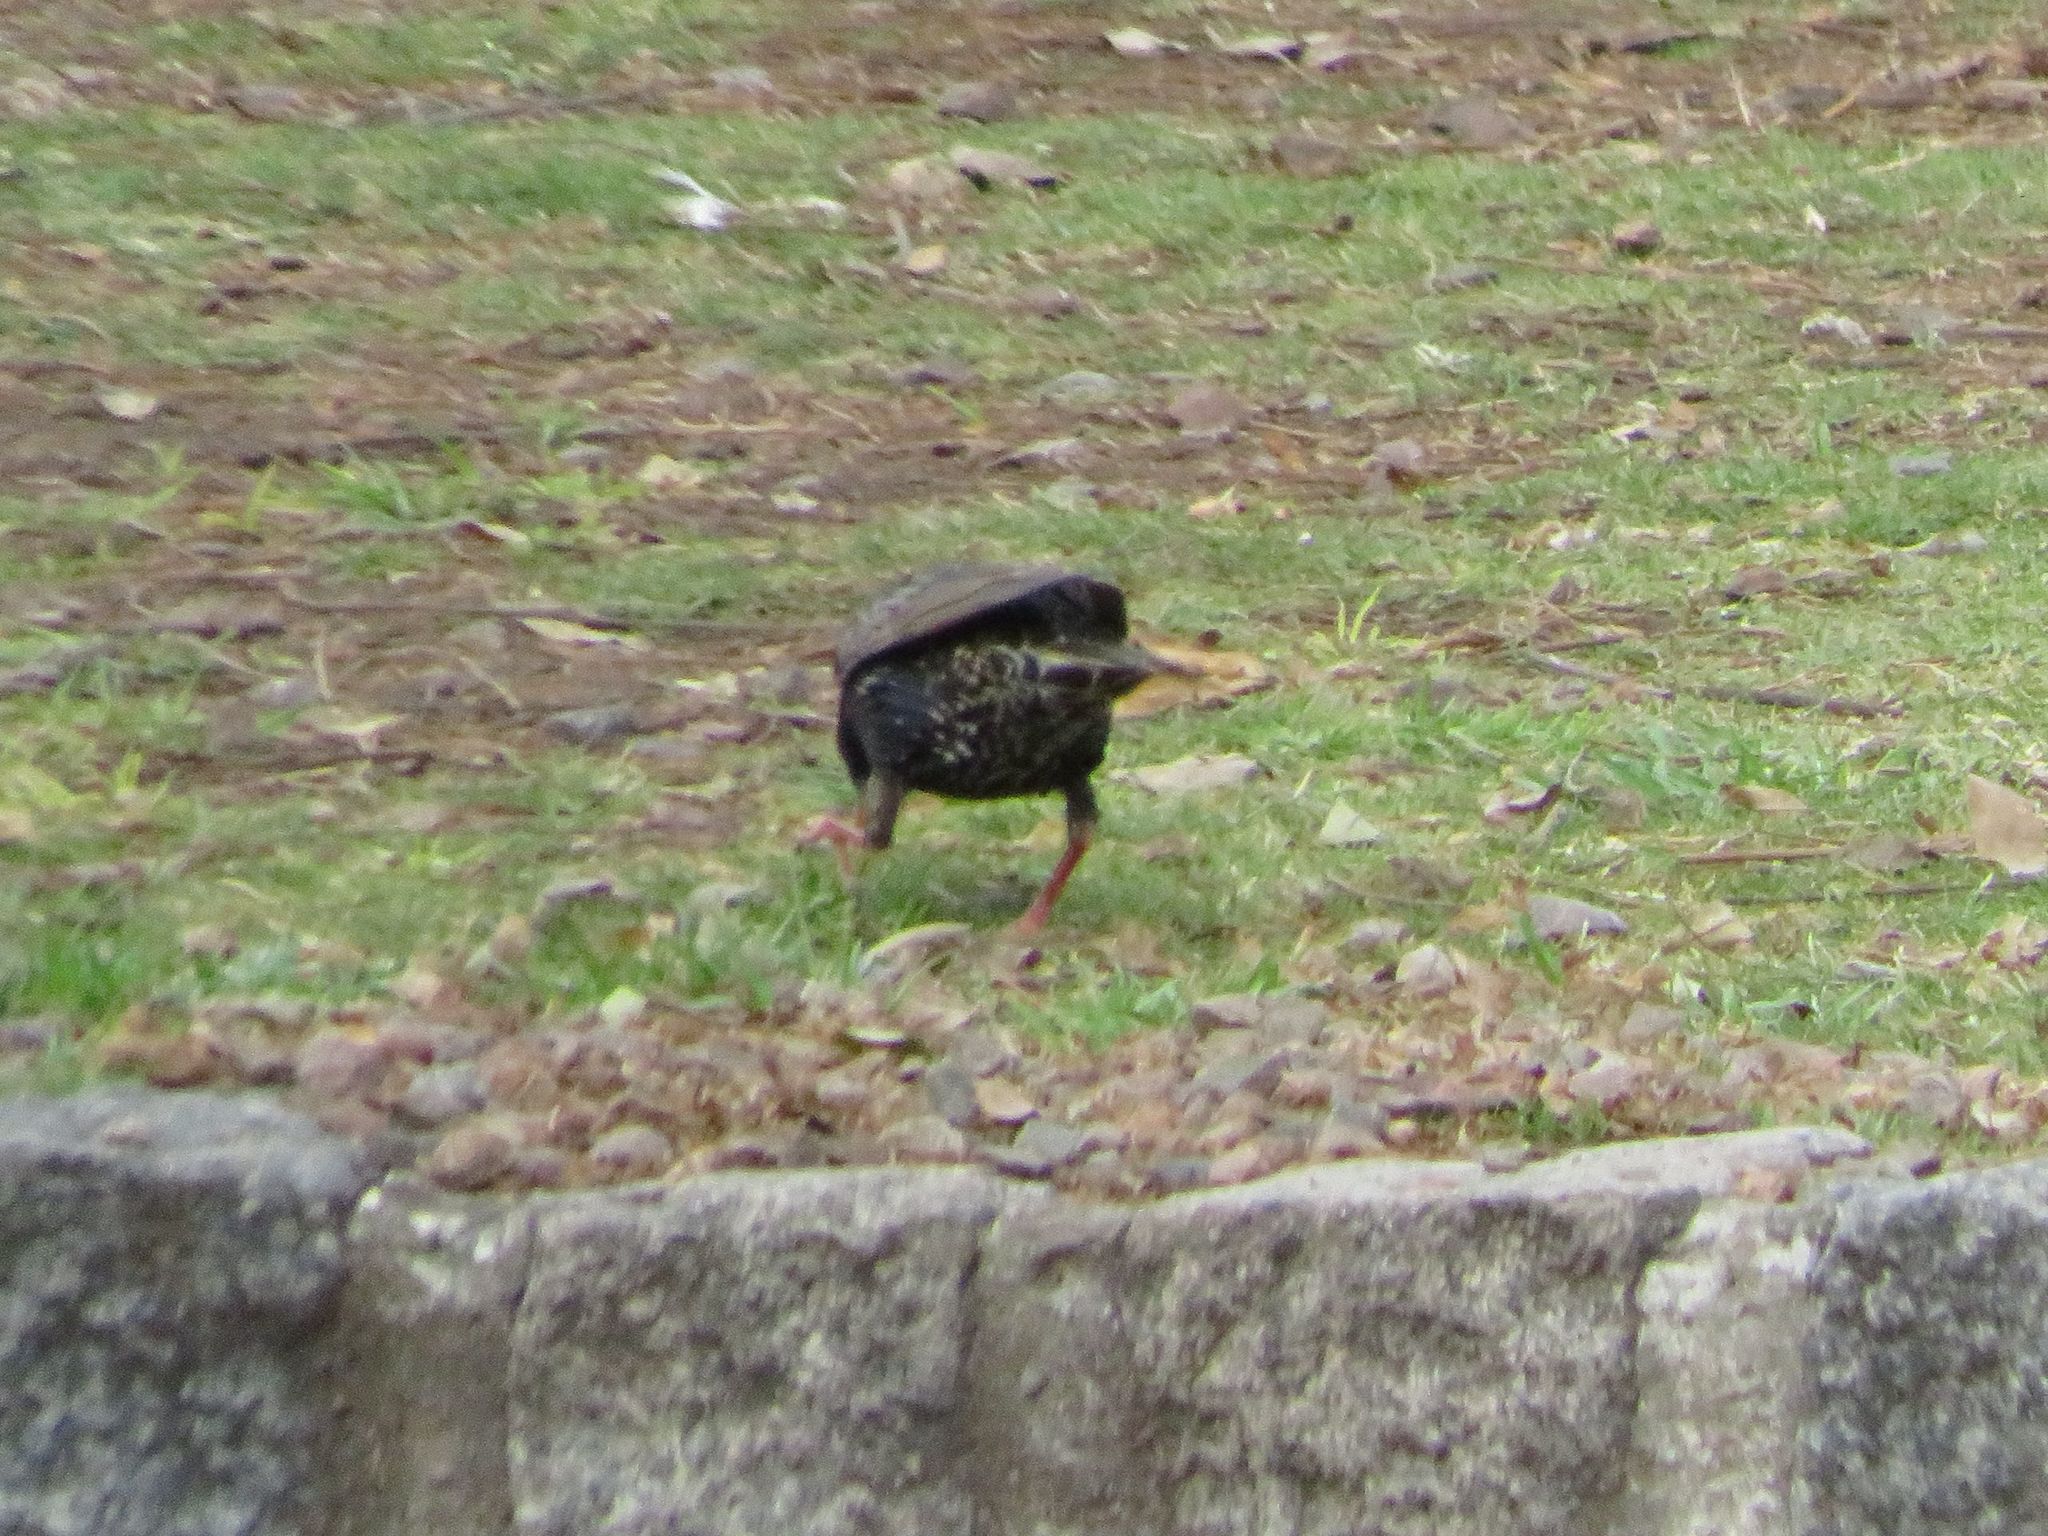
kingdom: Animalia
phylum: Chordata
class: Aves
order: Passeriformes
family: Sturnidae
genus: Sturnus
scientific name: Sturnus vulgaris
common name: Common starling
